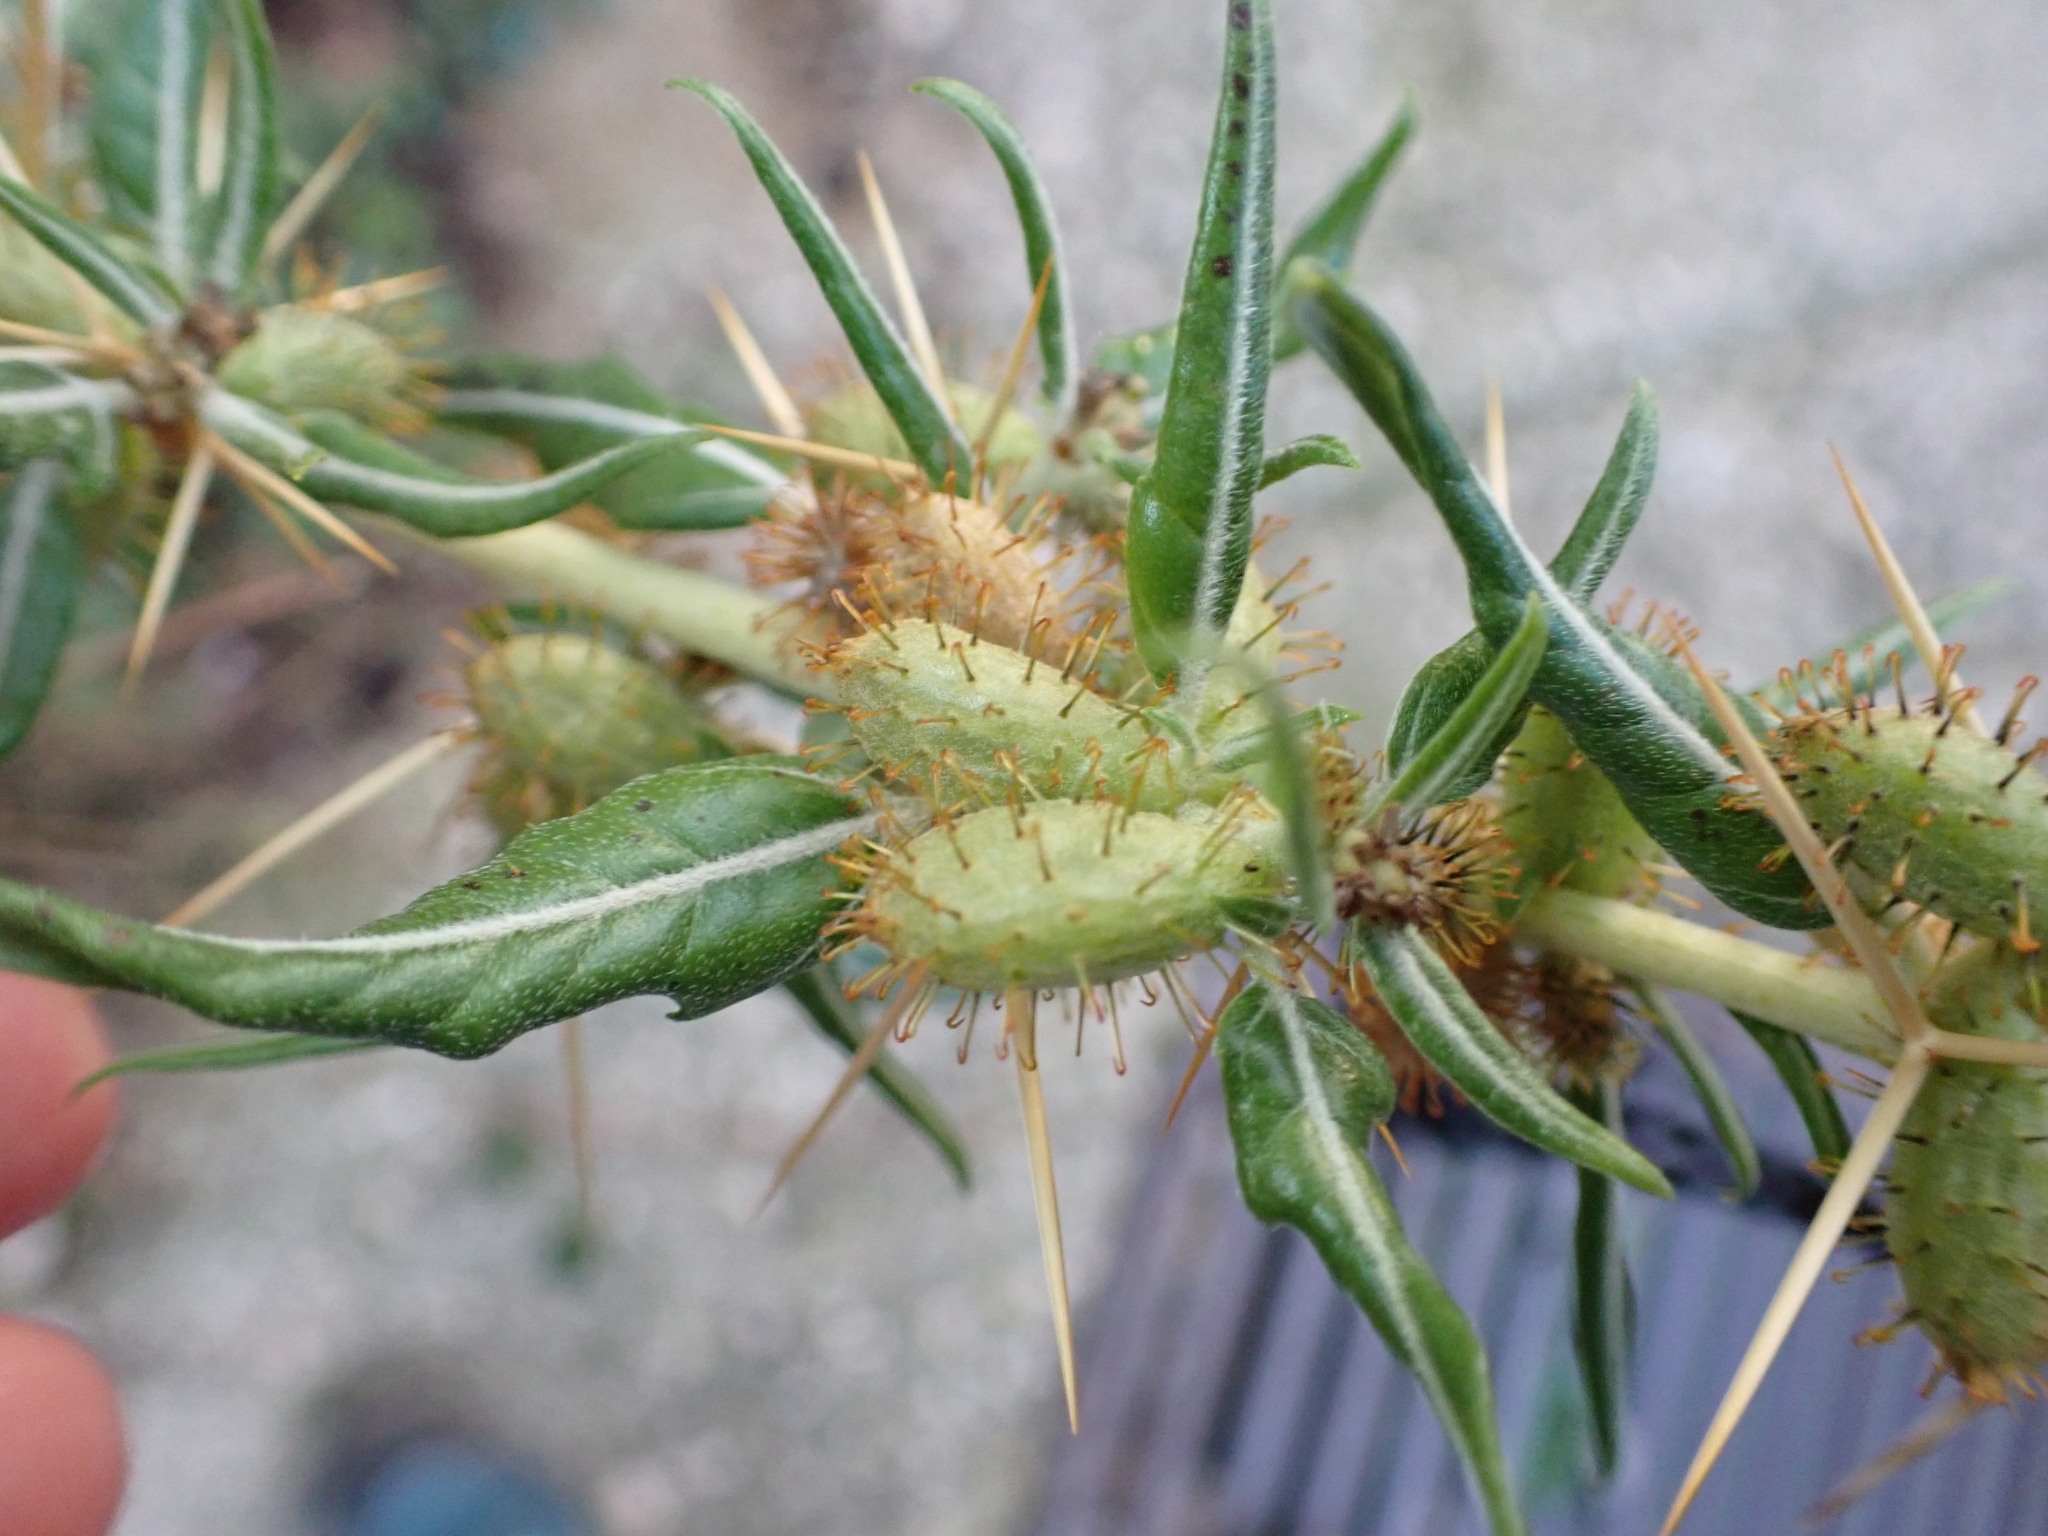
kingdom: Plantae
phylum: Tracheophyta
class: Magnoliopsida
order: Asterales
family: Asteraceae
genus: Xanthium
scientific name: Xanthium spinosum
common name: Spiny cocklebur
